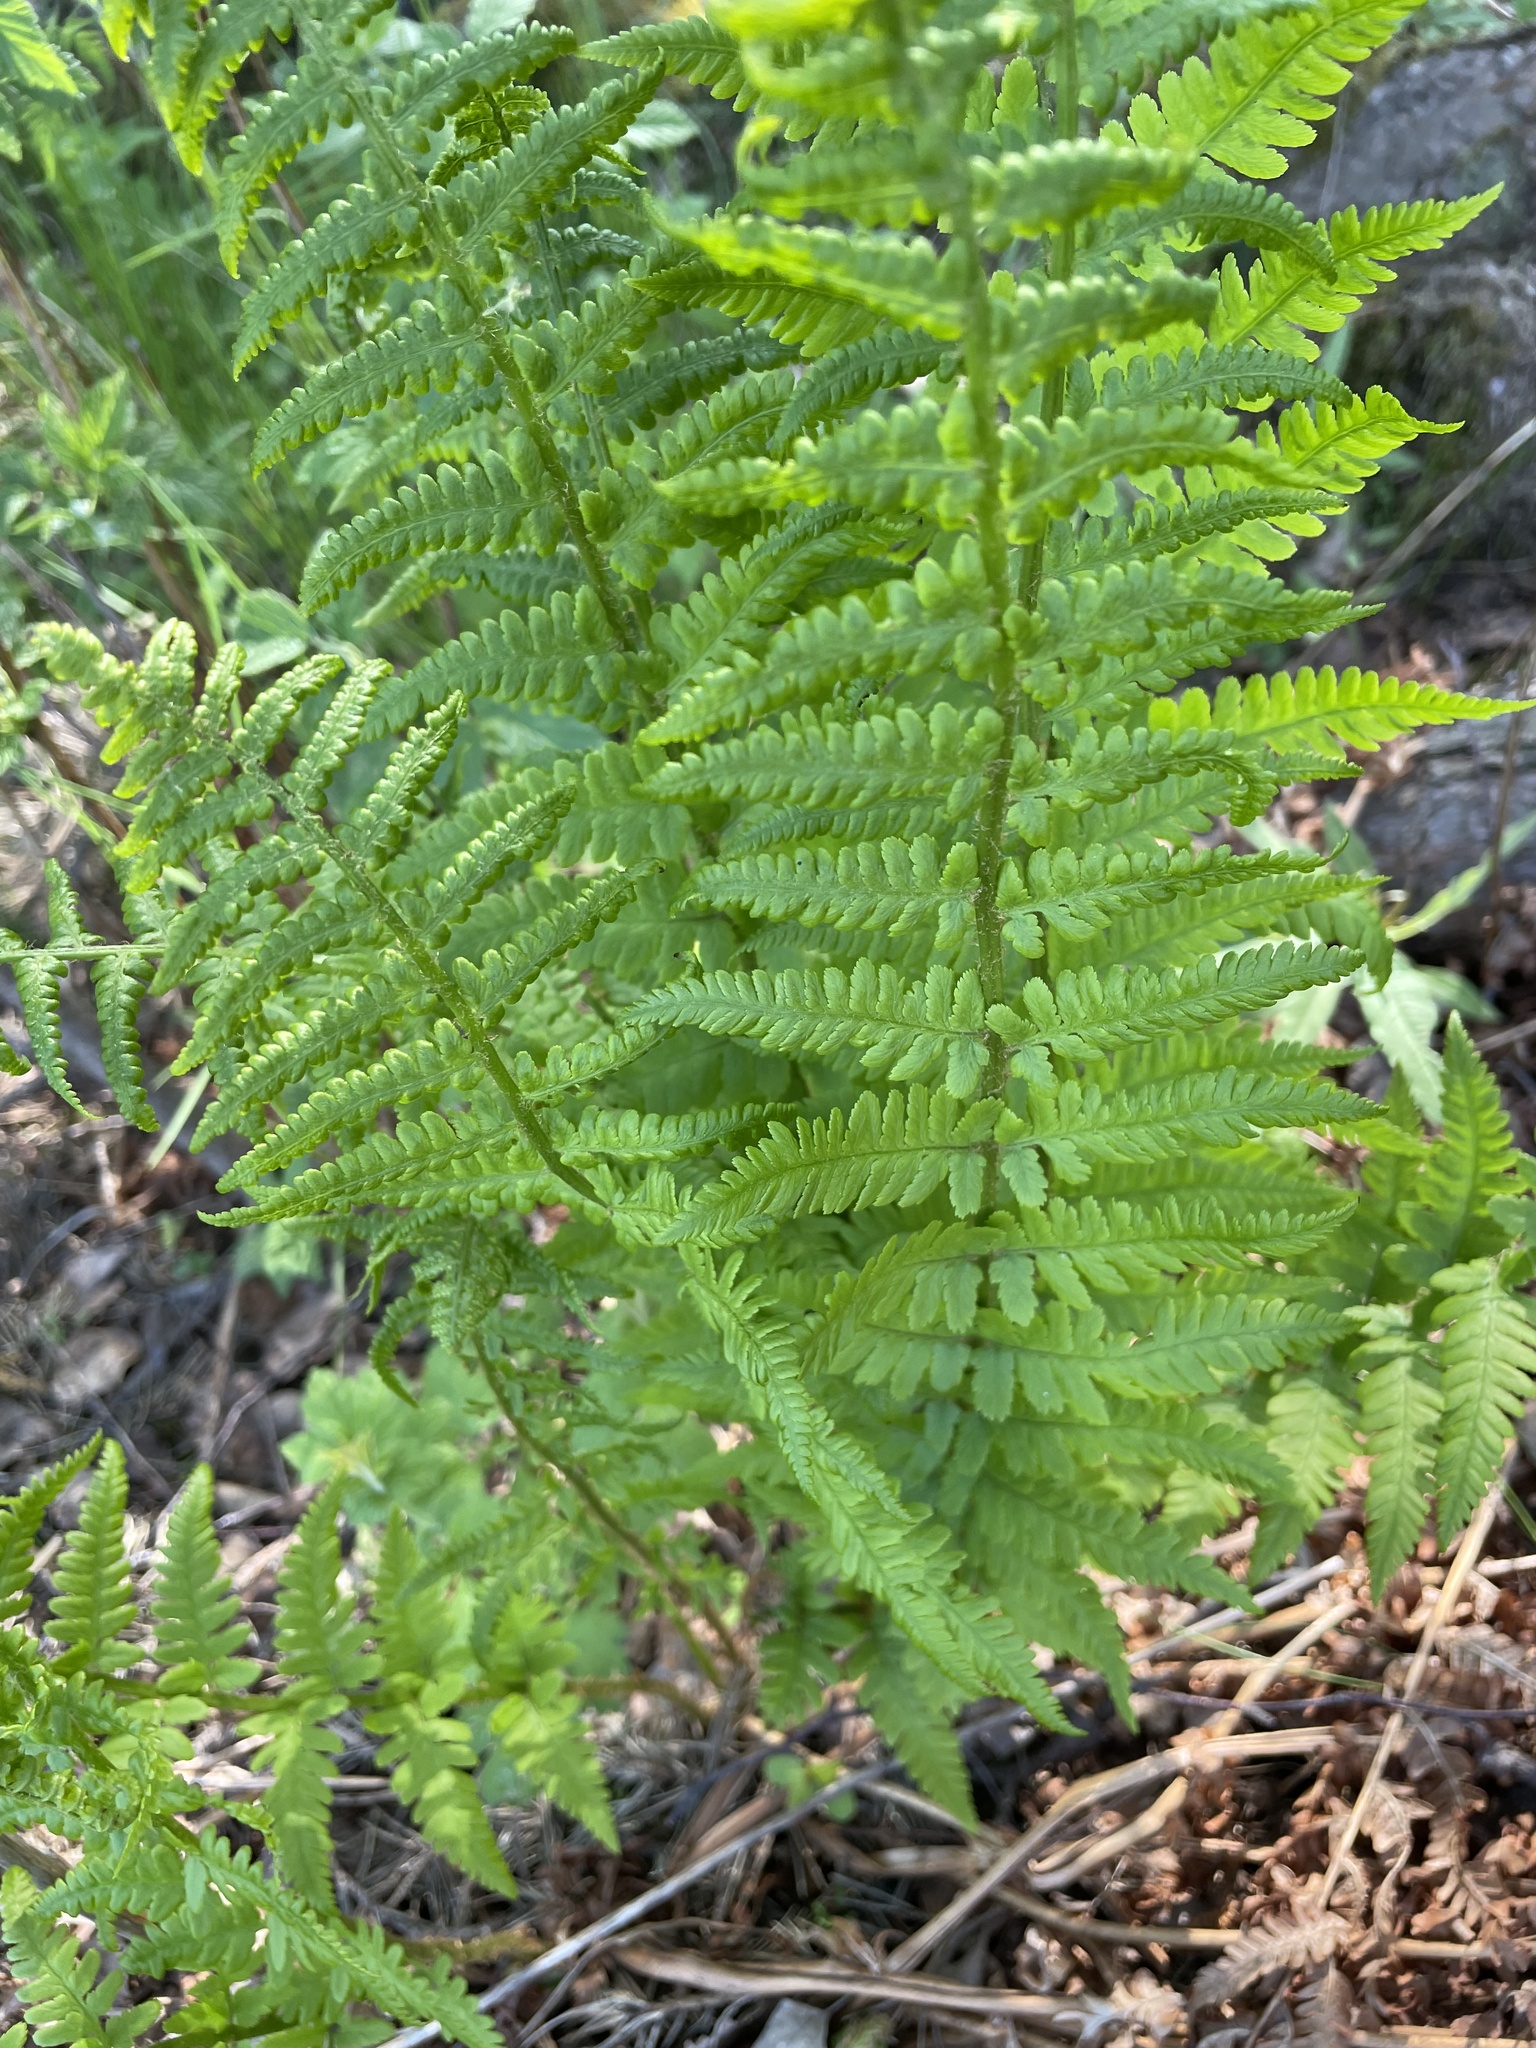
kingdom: Plantae
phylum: Tracheophyta
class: Polypodiopsida
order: Polypodiales
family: Dryopteridaceae
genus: Dryopteris
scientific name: Dryopteris filix-mas
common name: Male fern
